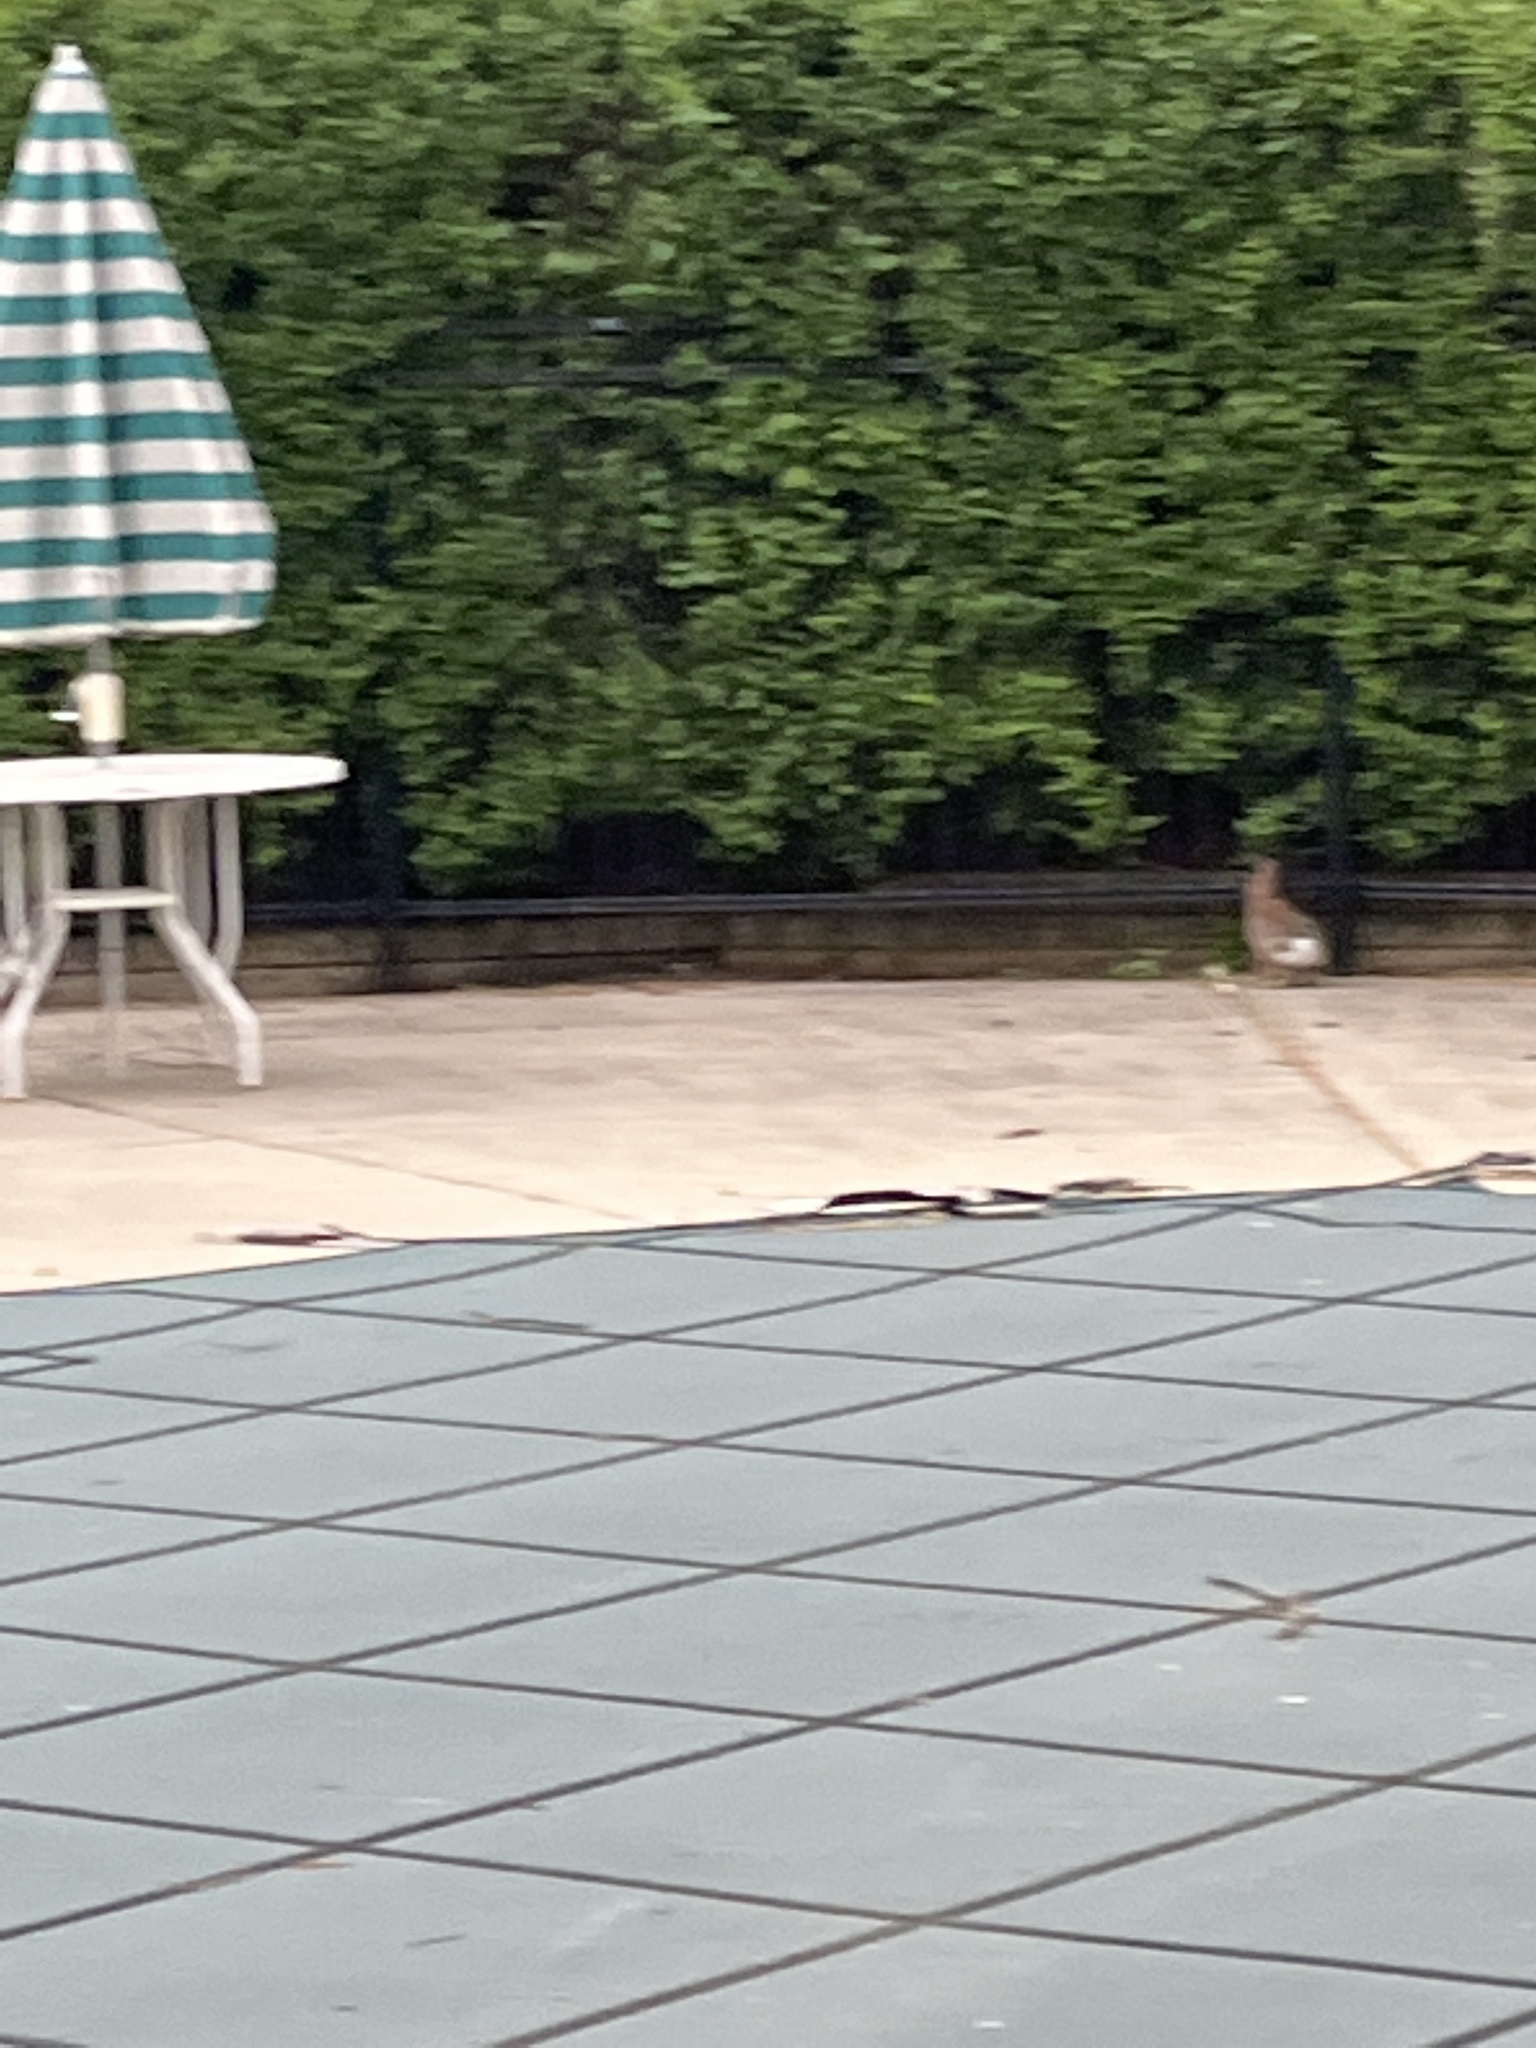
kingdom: Animalia
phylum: Chordata
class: Mammalia
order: Lagomorpha
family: Leporidae
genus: Sylvilagus
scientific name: Sylvilagus floridanus
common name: Eastern cottontail
